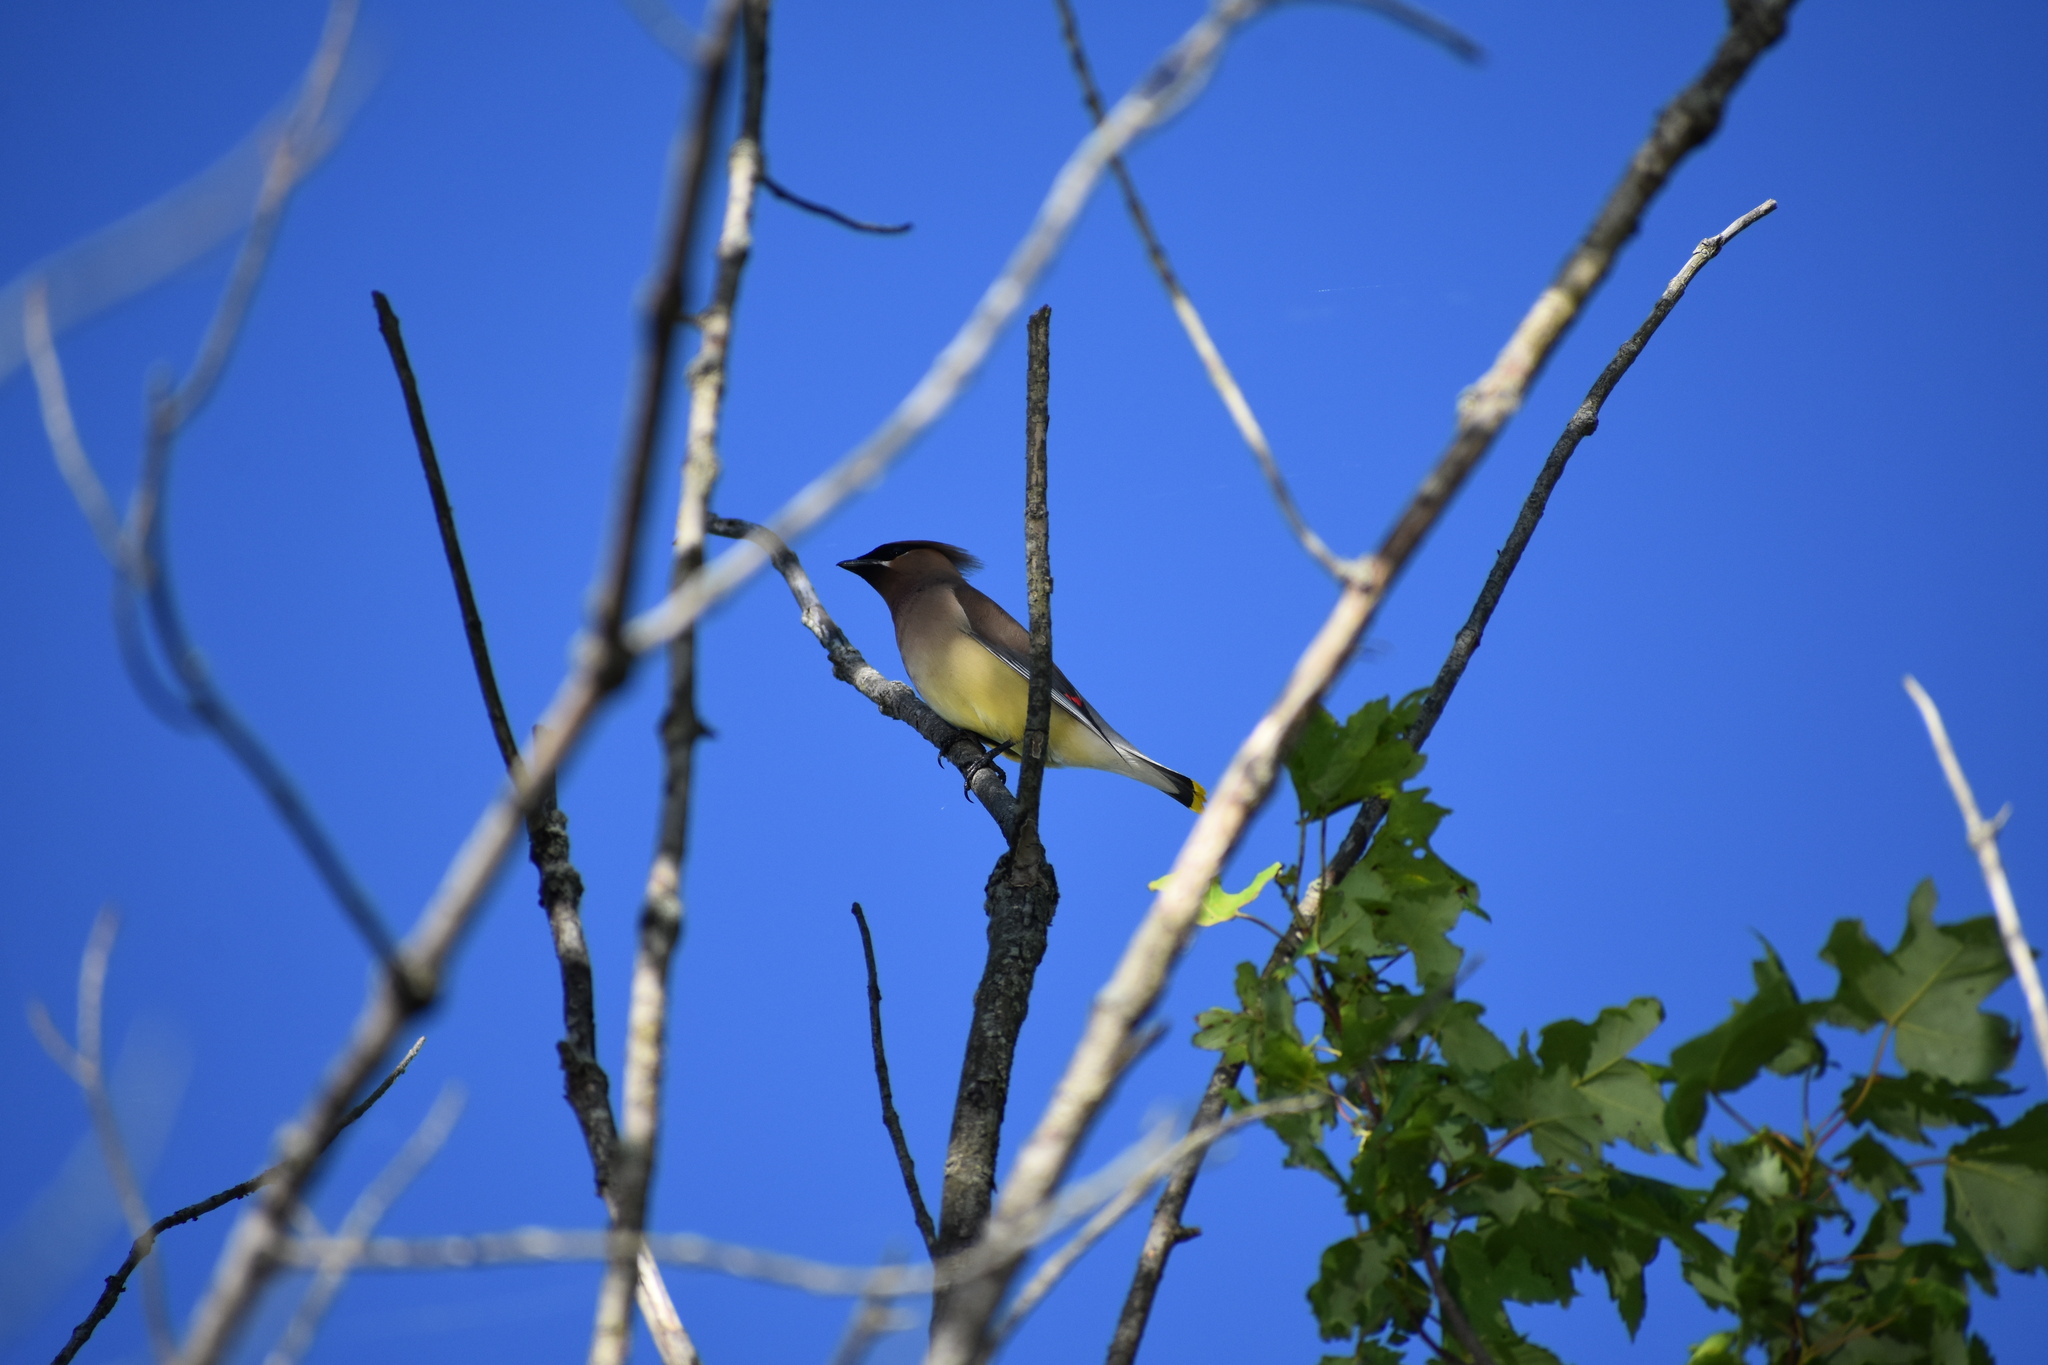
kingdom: Animalia
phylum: Chordata
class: Aves
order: Passeriformes
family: Bombycillidae
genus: Bombycilla
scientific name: Bombycilla cedrorum
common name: Cedar waxwing
